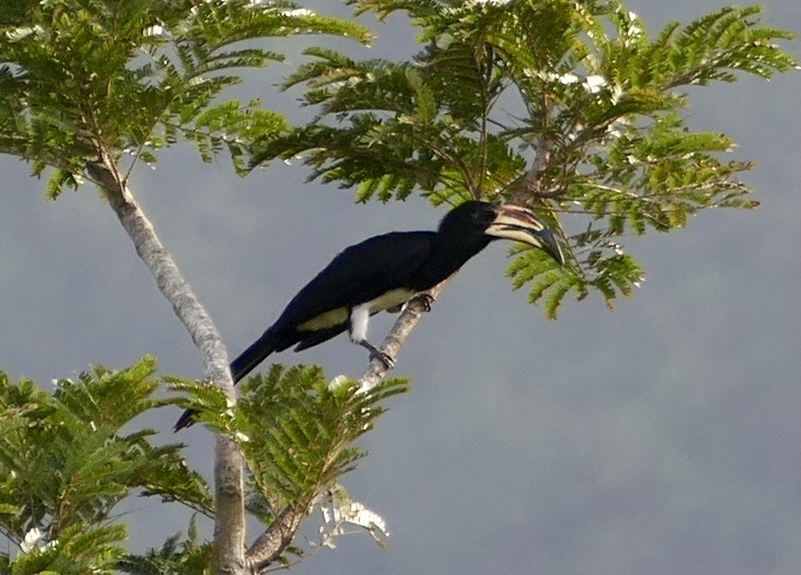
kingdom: Animalia
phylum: Chordata
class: Aves
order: Bucerotiformes
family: Bucerotidae
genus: Lophoceros
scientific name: Lophoceros fasciatus
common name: African pied hornbill
